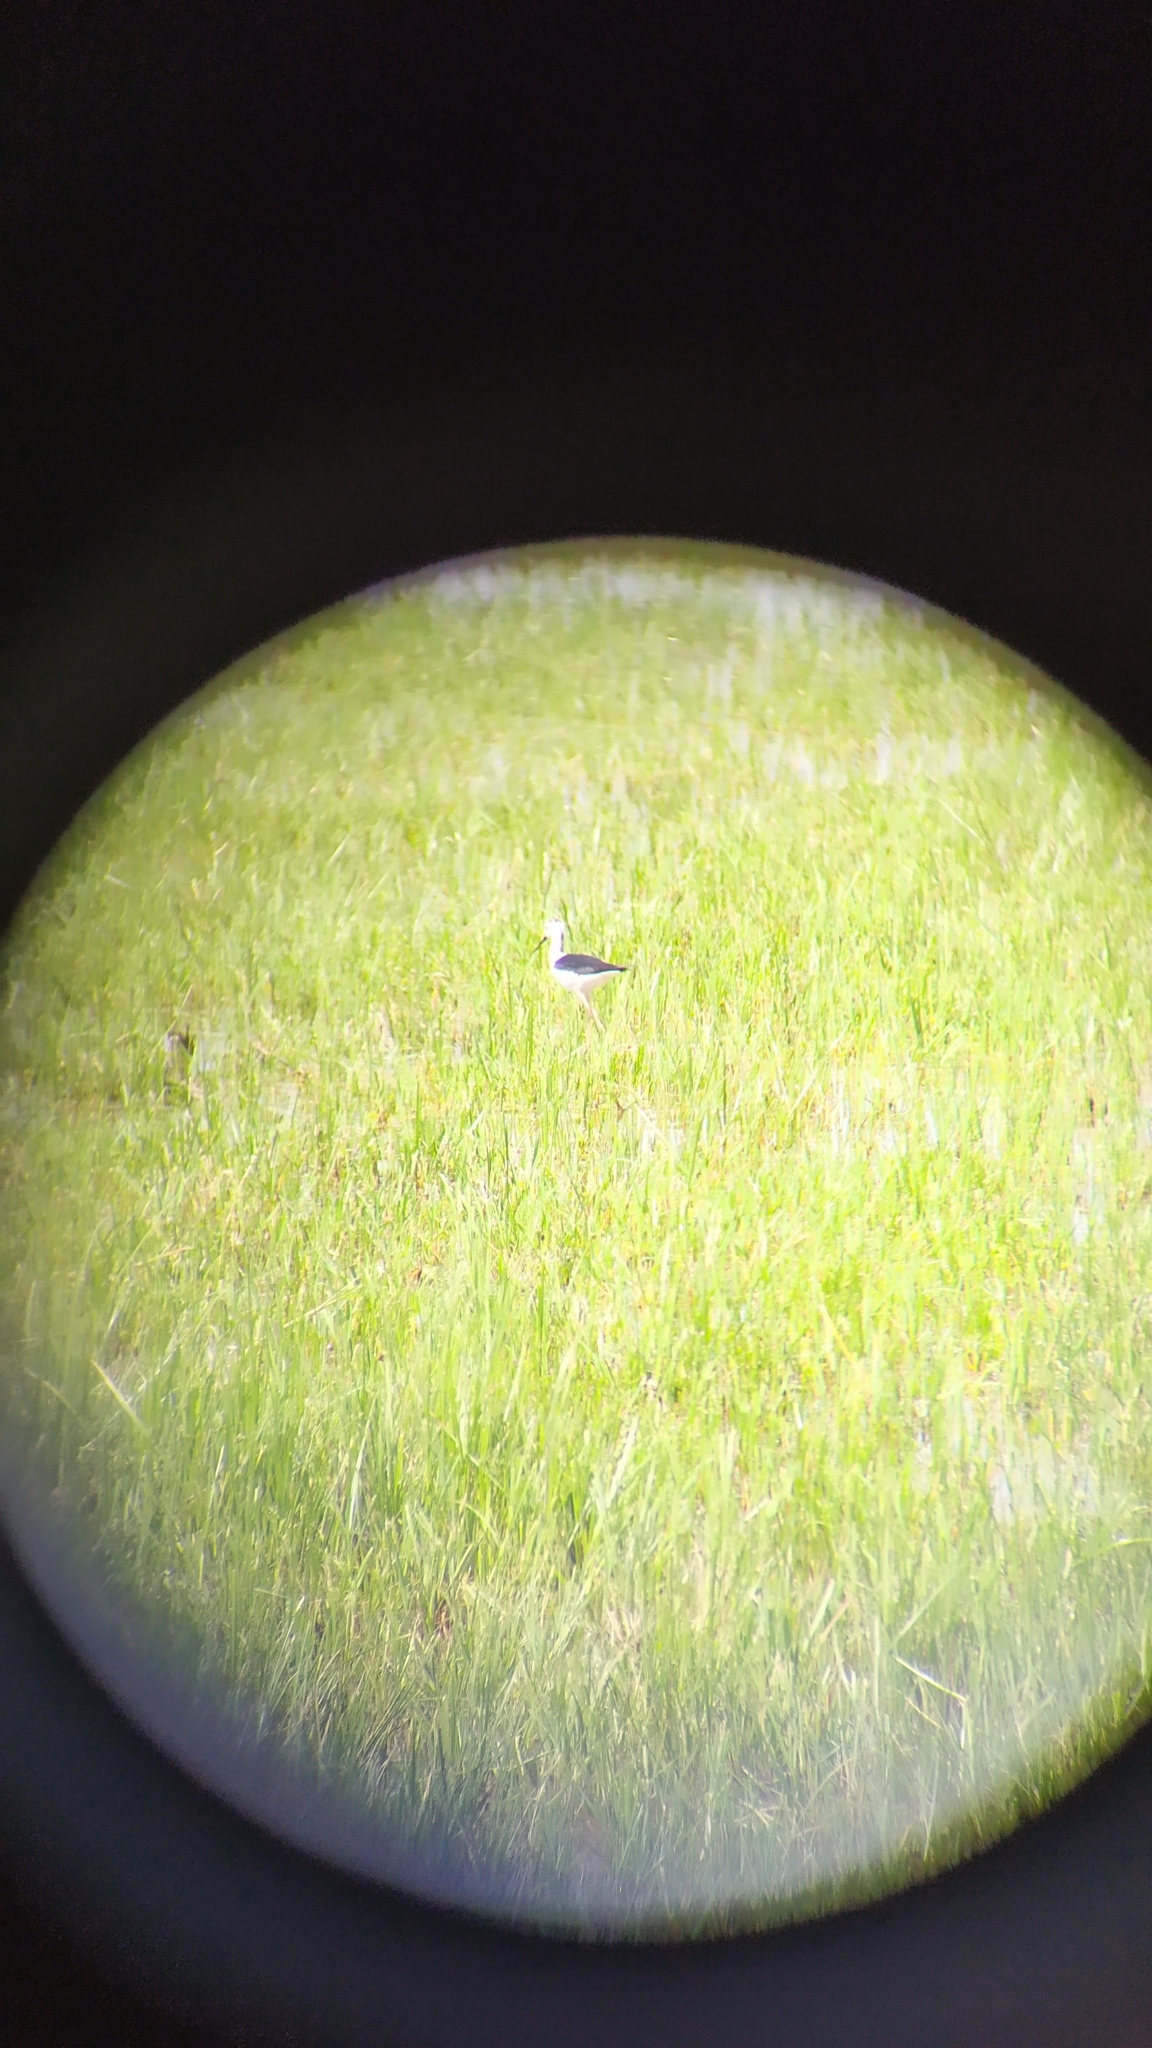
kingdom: Animalia
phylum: Chordata
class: Aves
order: Charadriiformes
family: Recurvirostridae
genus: Himantopus
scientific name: Himantopus himantopus
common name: Black-winged stilt
